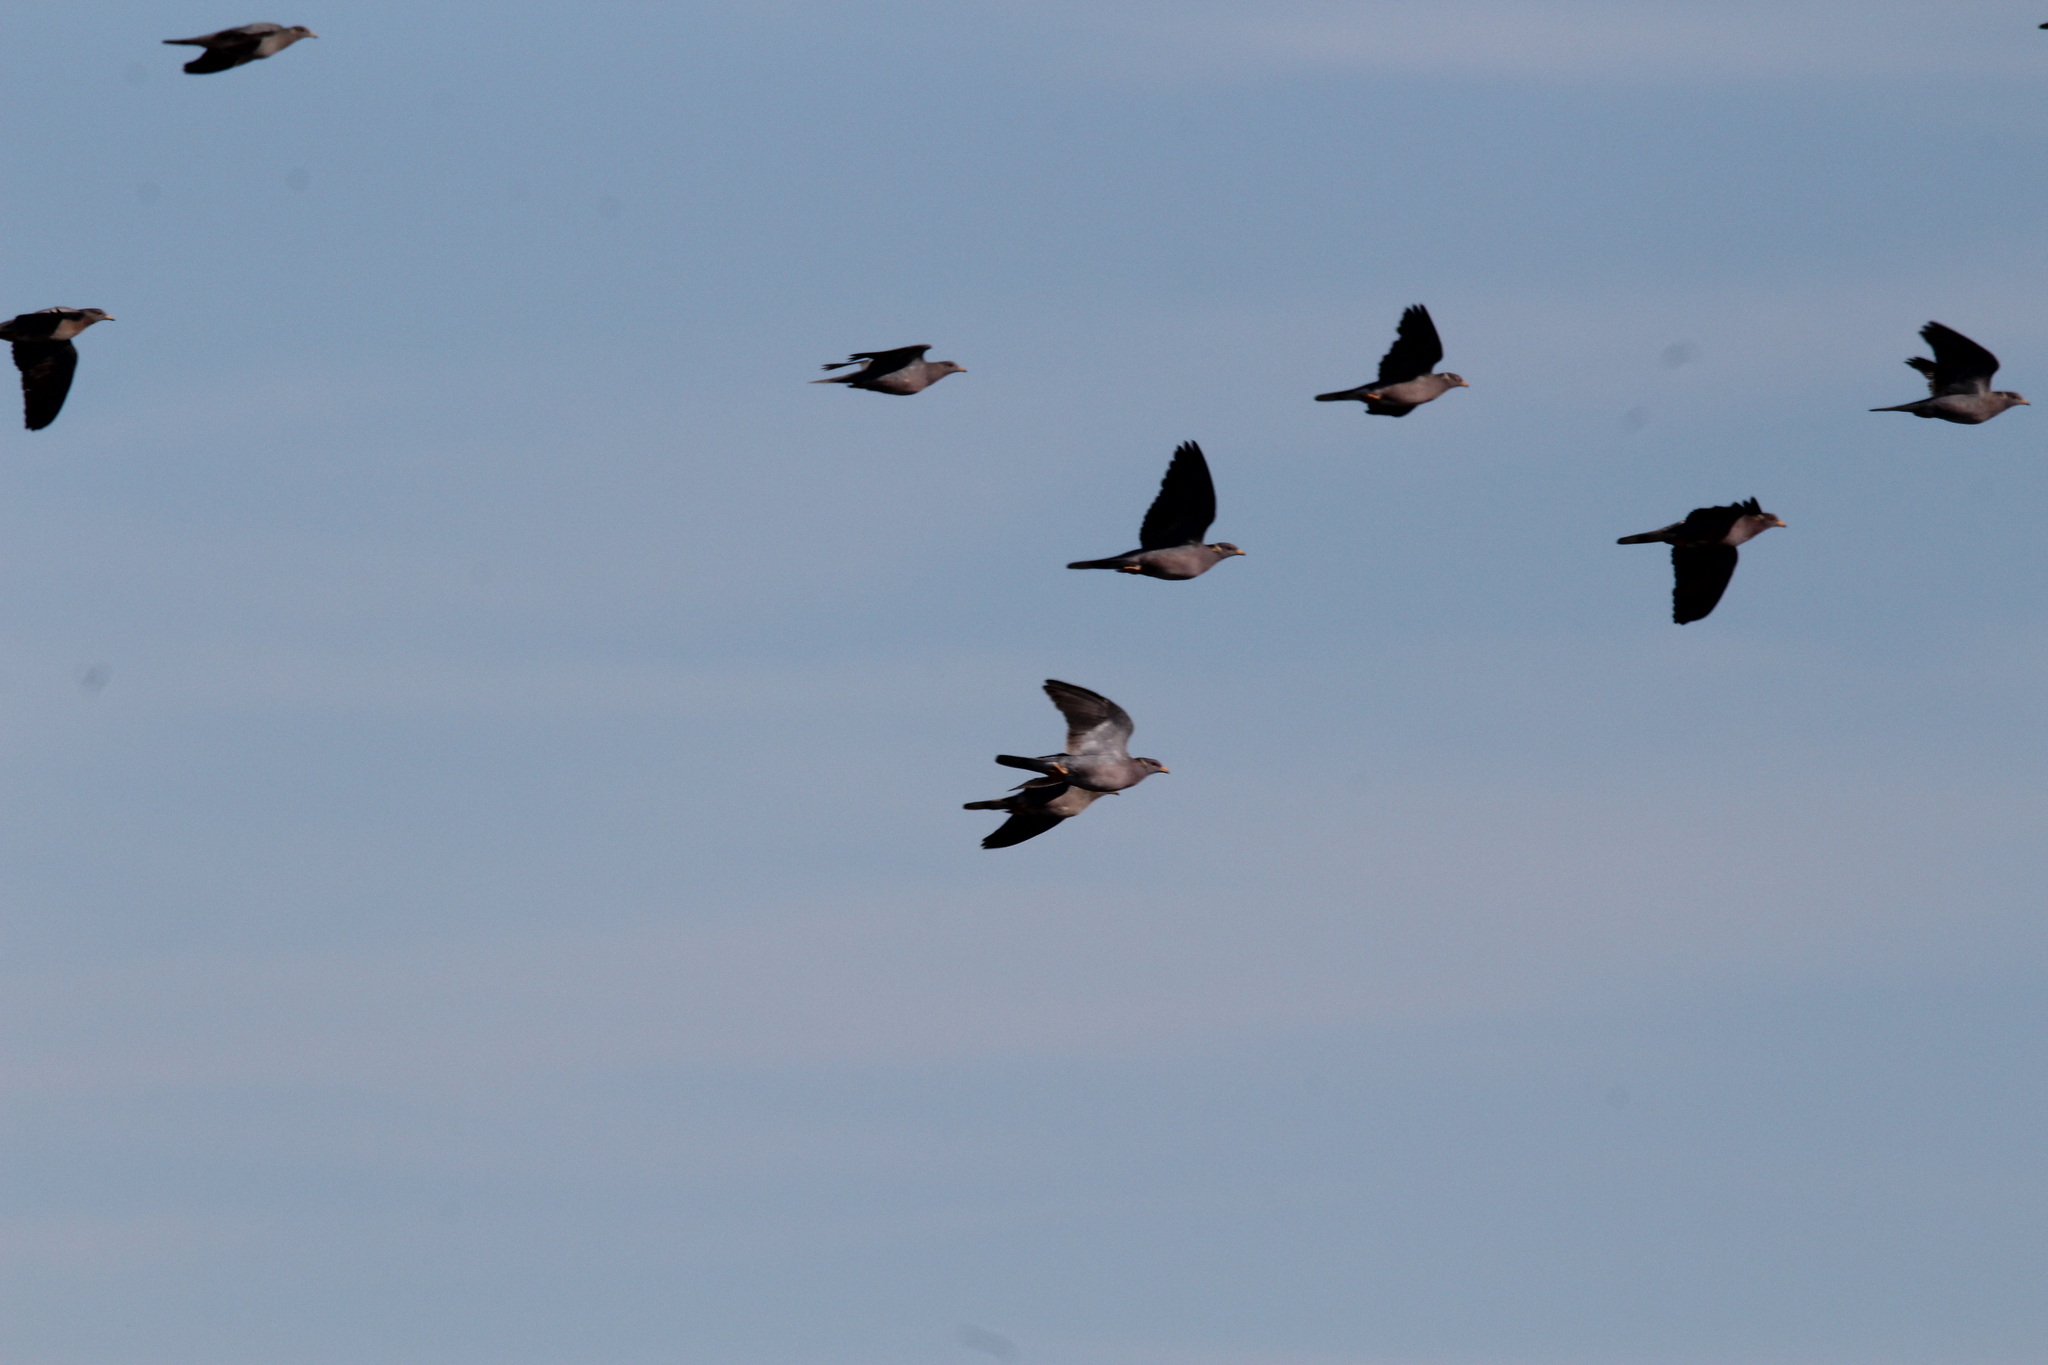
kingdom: Animalia
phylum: Chordata
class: Aves
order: Columbiformes
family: Columbidae
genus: Patagioenas
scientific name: Patagioenas fasciata
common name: Band-tailed pigeon
